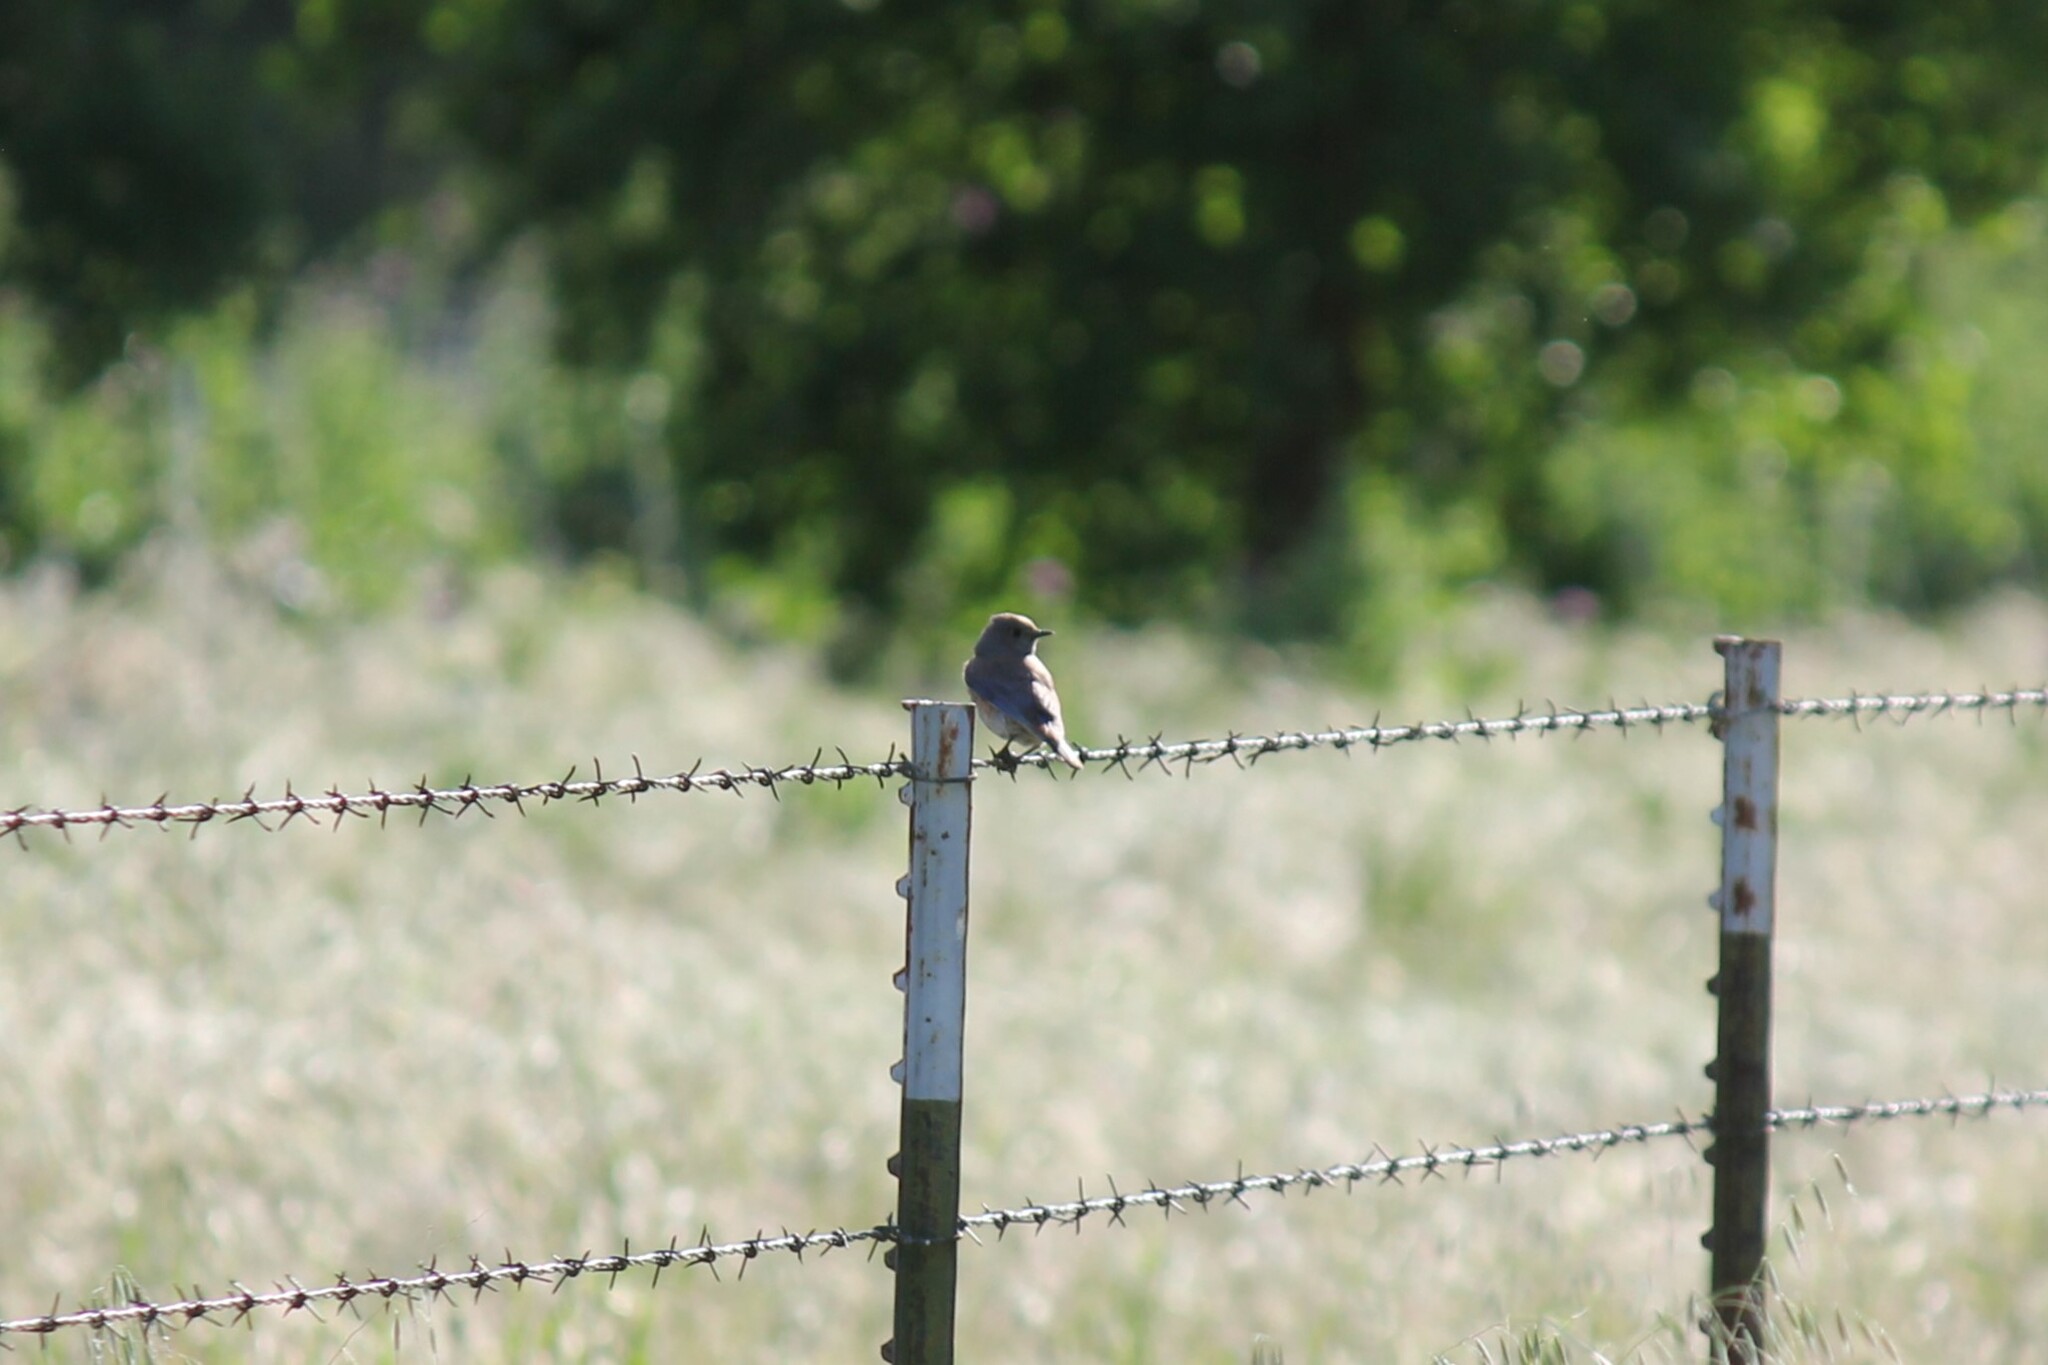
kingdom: Animalia
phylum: Chordata
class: Aves
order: Passeriformes
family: Turdidae
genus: Sialia
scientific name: Sialia mexicana
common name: Western bluebird
